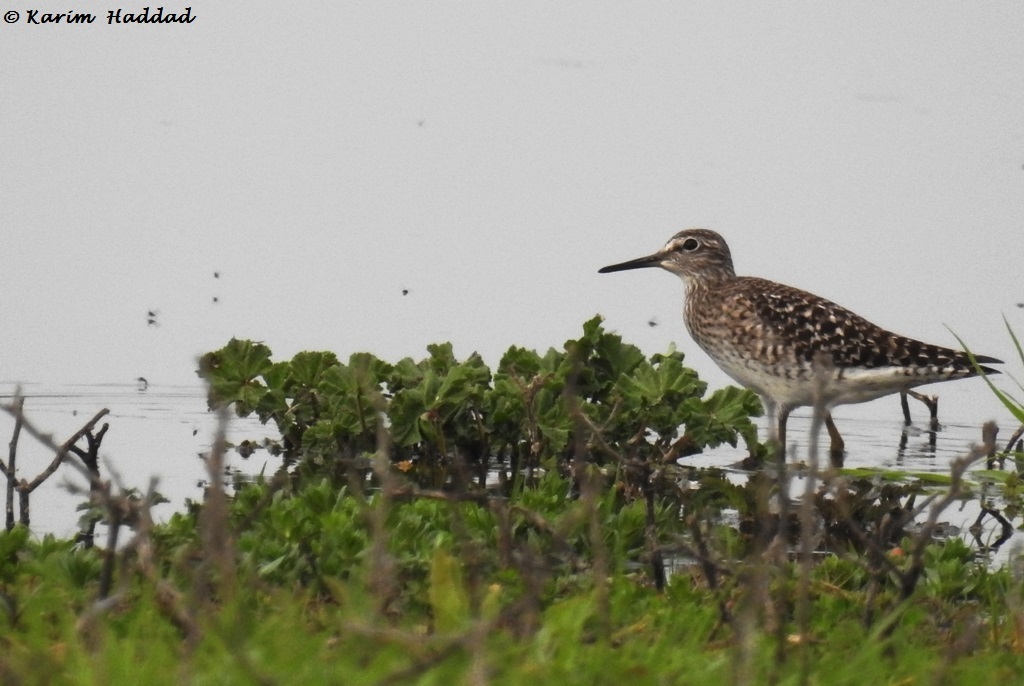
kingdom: Animalia
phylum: Chordata
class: Aves
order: Charadriiformes
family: Scolopacidae
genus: Tringa
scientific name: Tringa glareola
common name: Wood sandpiper
